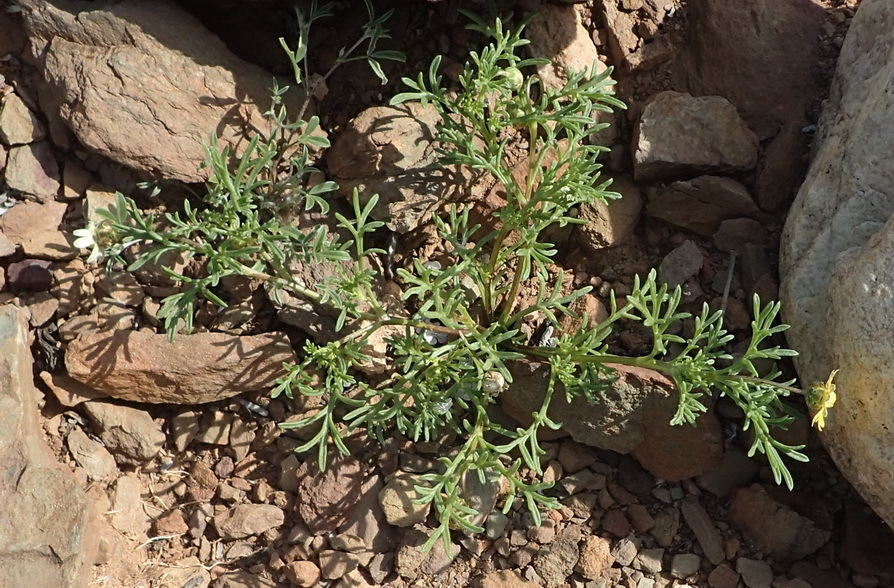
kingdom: Plantae
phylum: Tracheophyta
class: Magnoliopsida
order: Asterales
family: Asteraceae
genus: Ursinia
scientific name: Ursinia nana
